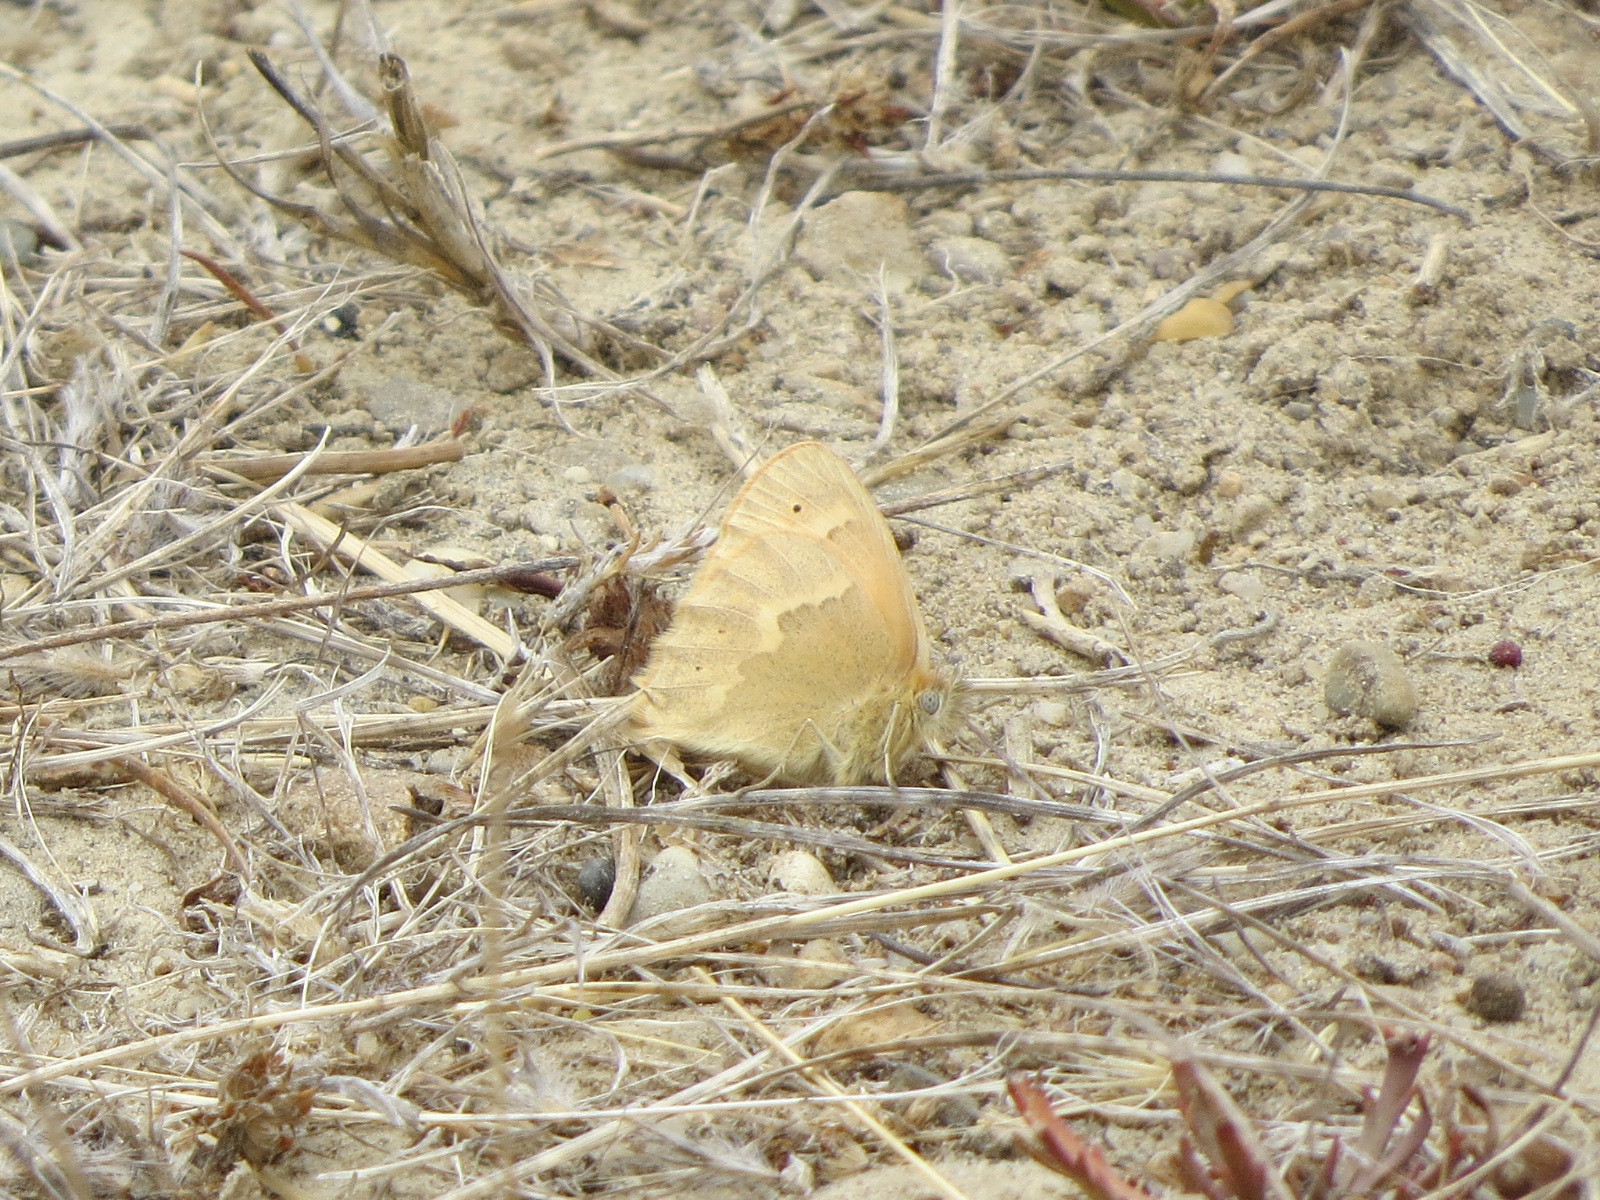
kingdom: Animalia
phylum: Arthropoda
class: Insecta
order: Lepidoptera
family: Nymphalidae
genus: Coenonympha
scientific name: Coenonympha california
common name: Common ringlet
